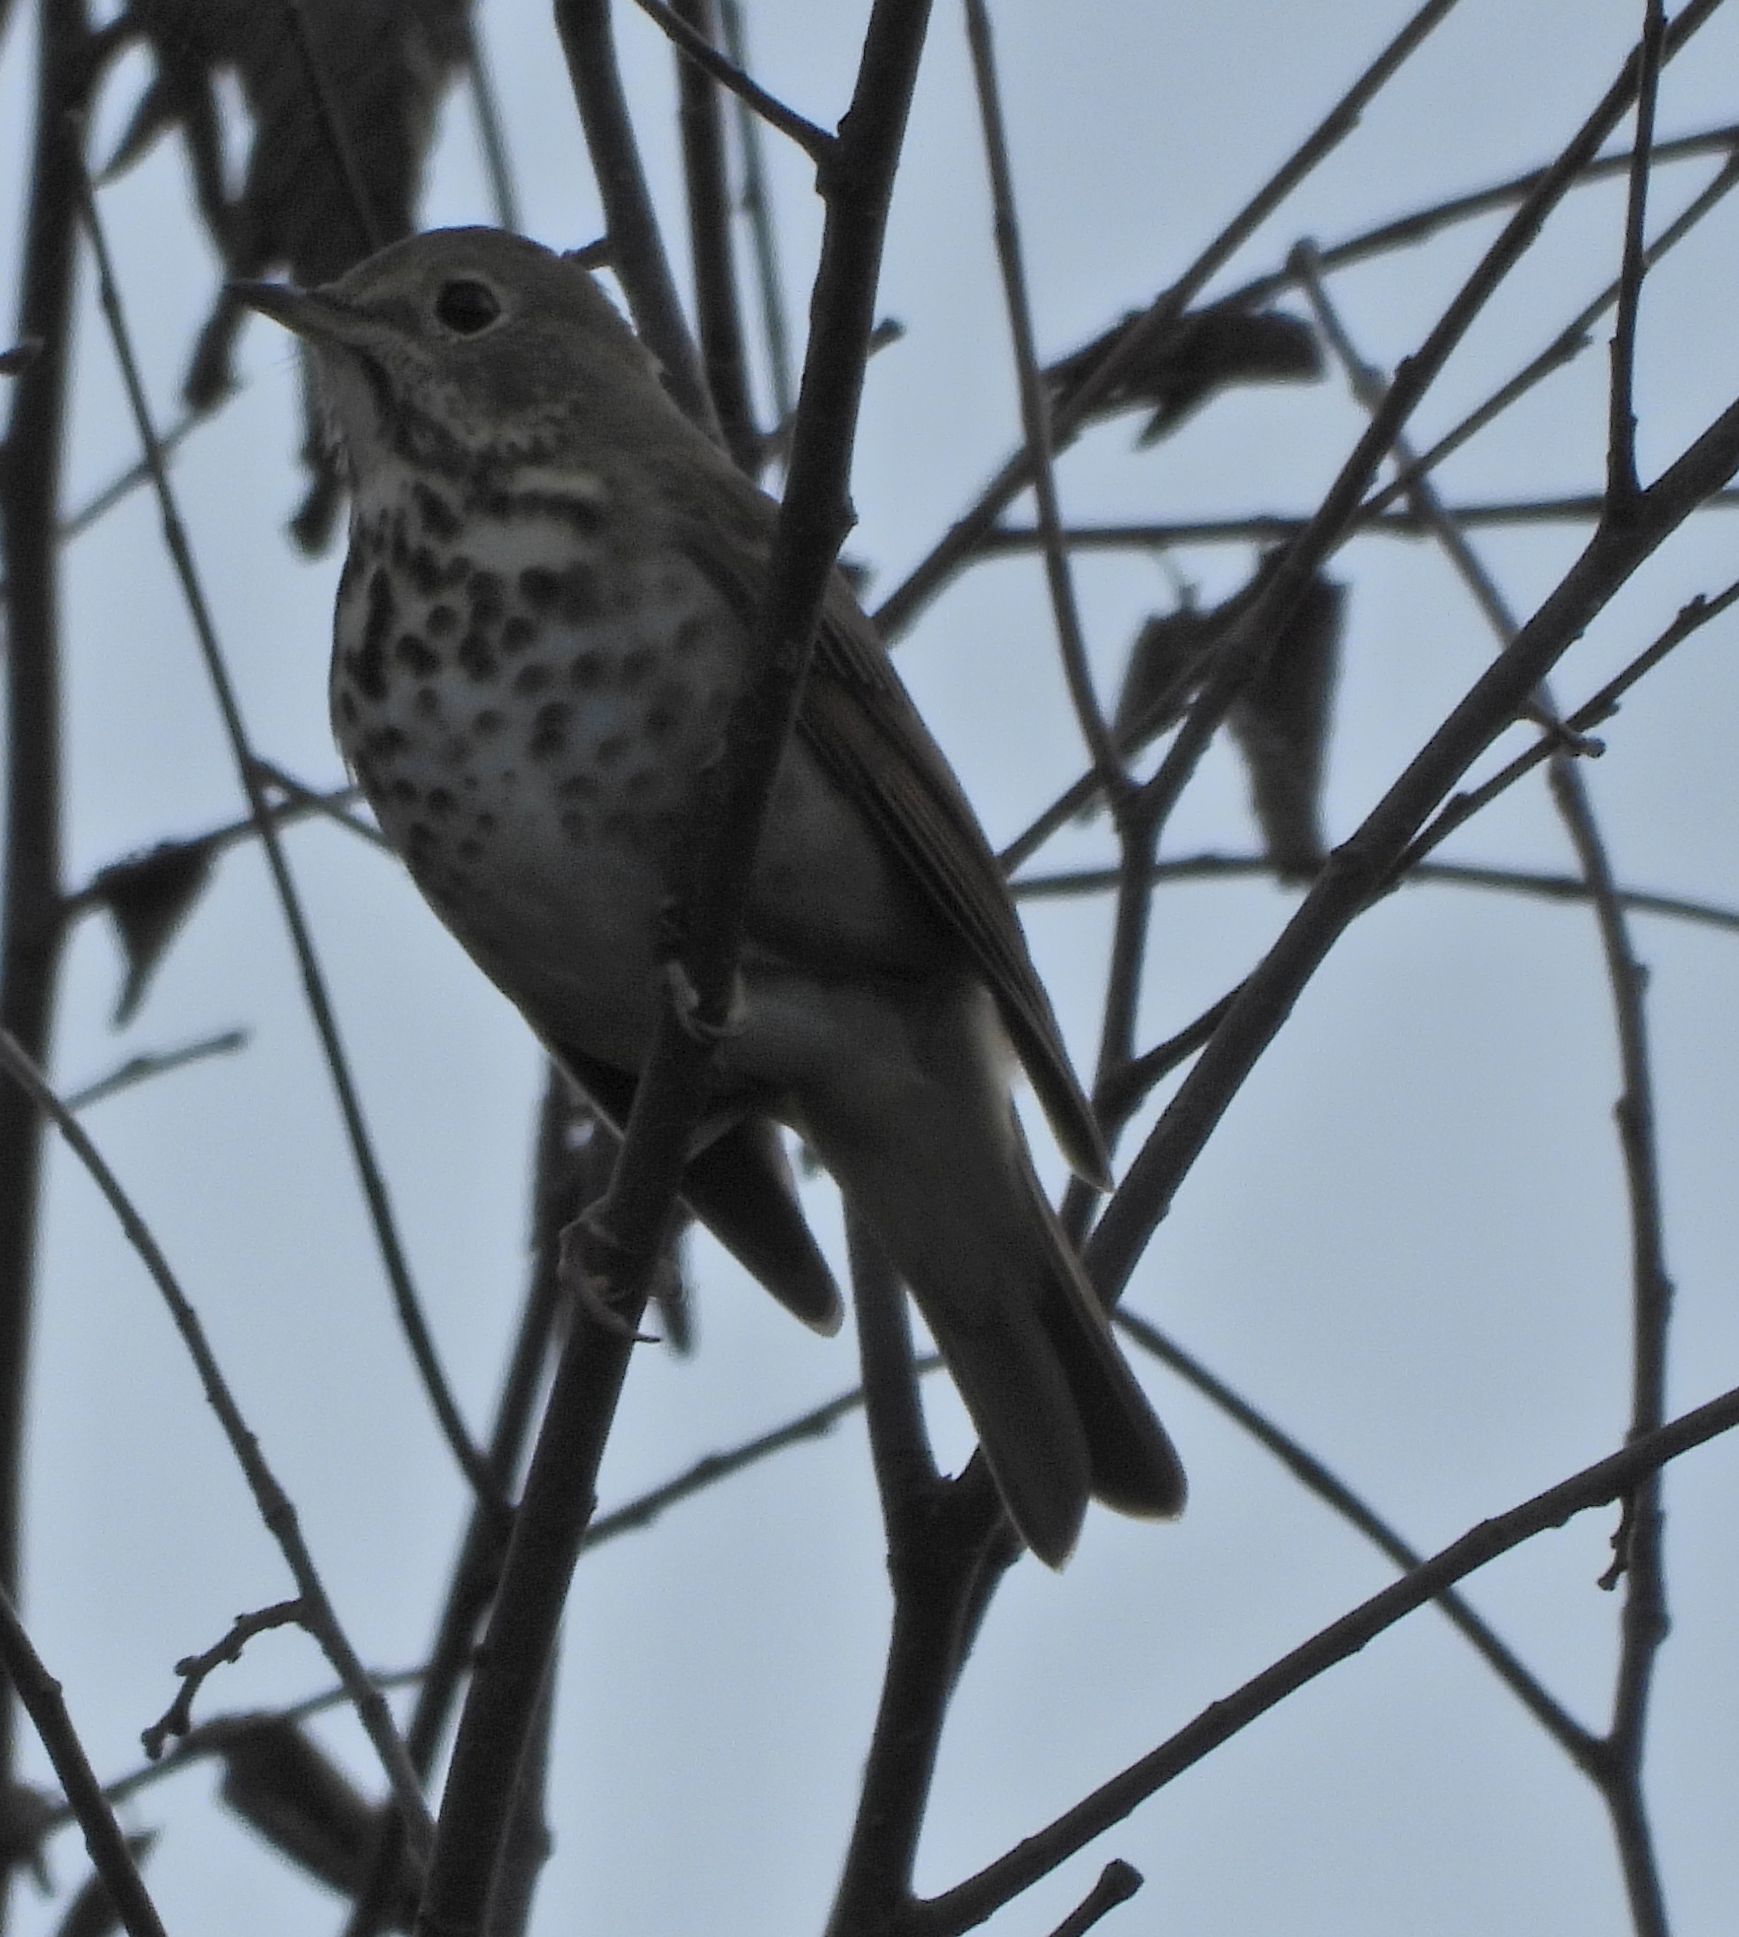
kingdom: Animalia
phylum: Chordata
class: Aves
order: Passeriformes
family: Turdidae
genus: Catharus
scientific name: Catharus guttatus
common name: Hermit thrush
